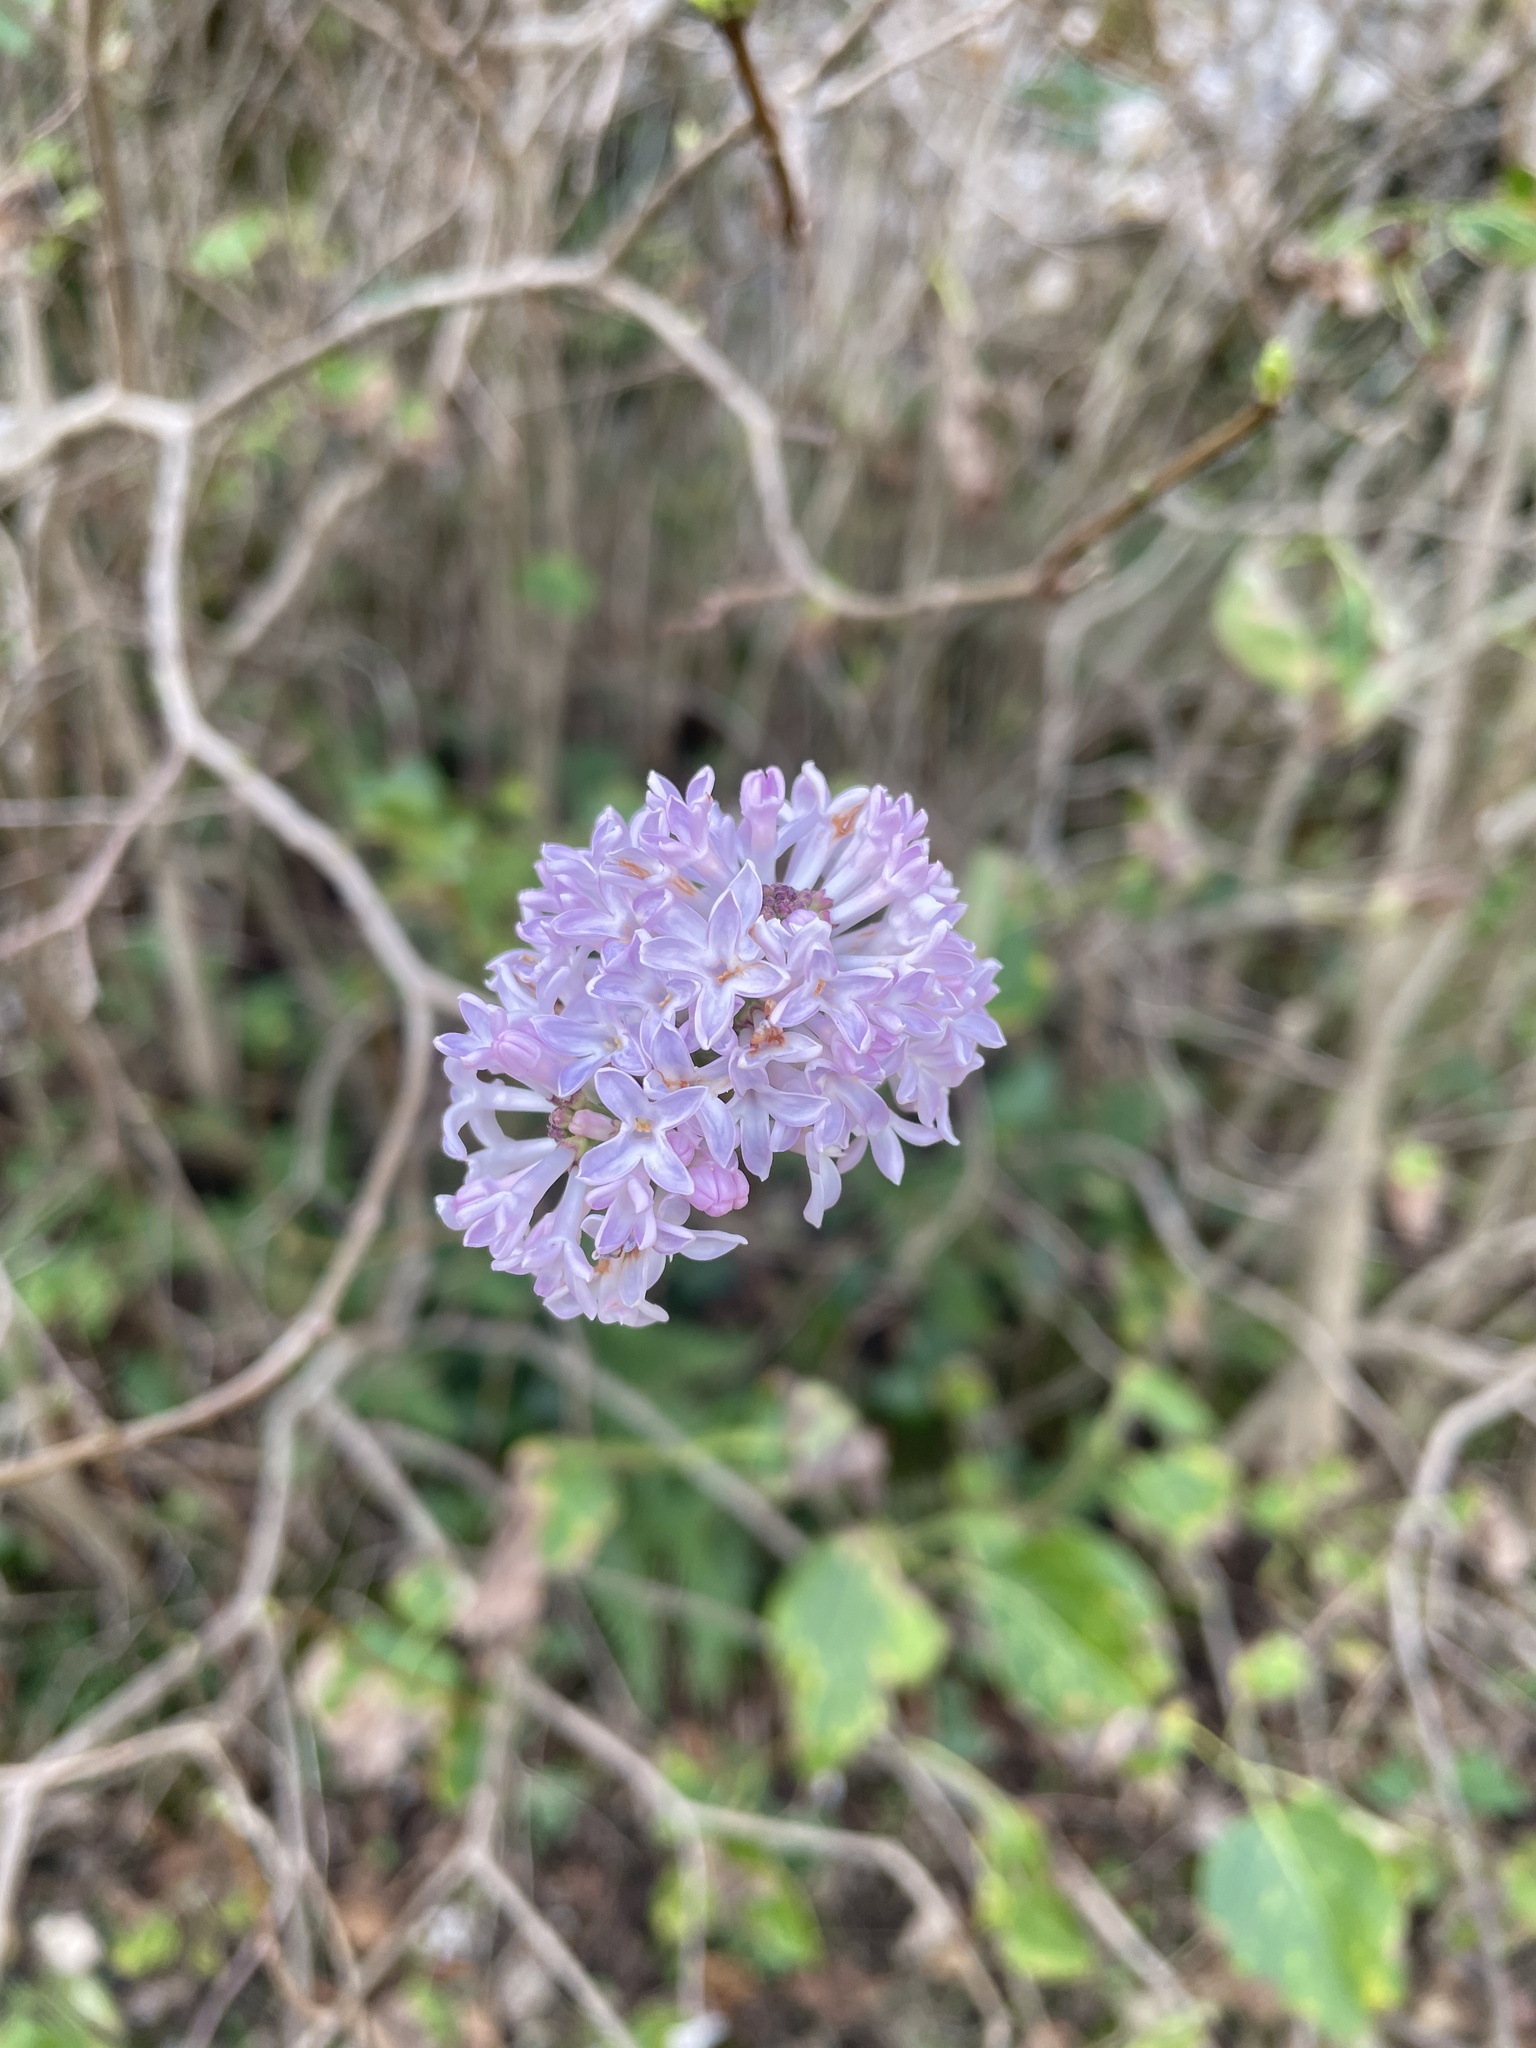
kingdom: Plantae
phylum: Tracheophyta
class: Magnoliopsida
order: Lamiales
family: Oleaceae
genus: Syringa
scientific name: Syringa vulgaris
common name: Common lilac
